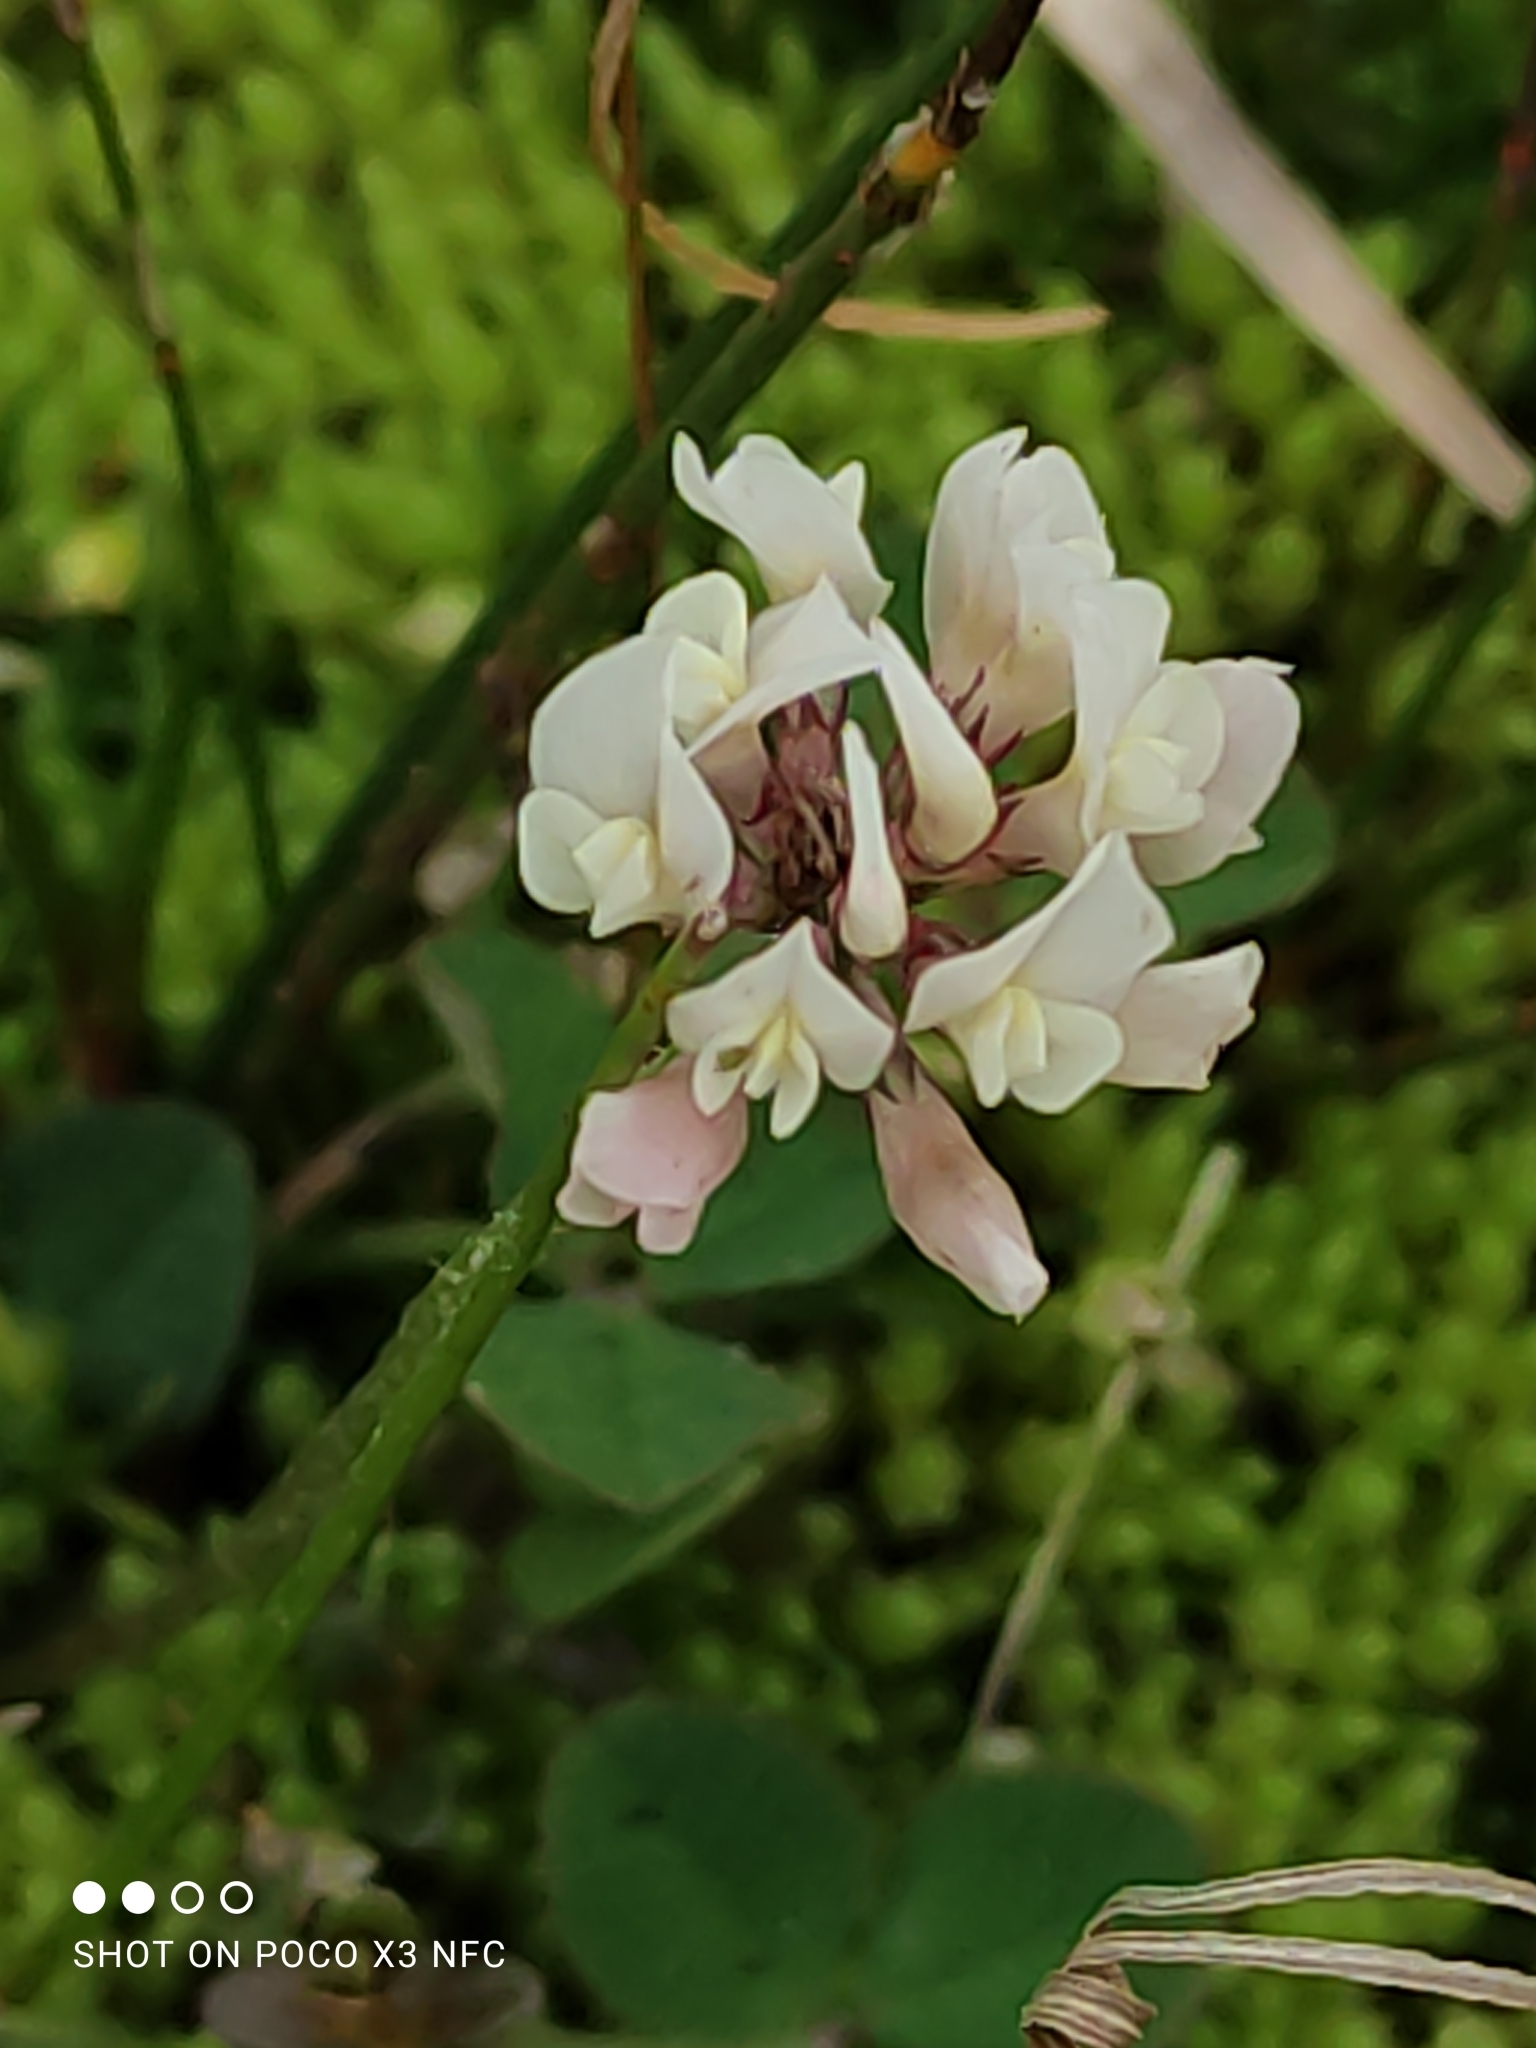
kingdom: Plantae
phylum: Tracheophyta
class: Magnoliopsida
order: Fabales
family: Fabaceae
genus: Trifolium
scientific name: Trifolium repens
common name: White clover
